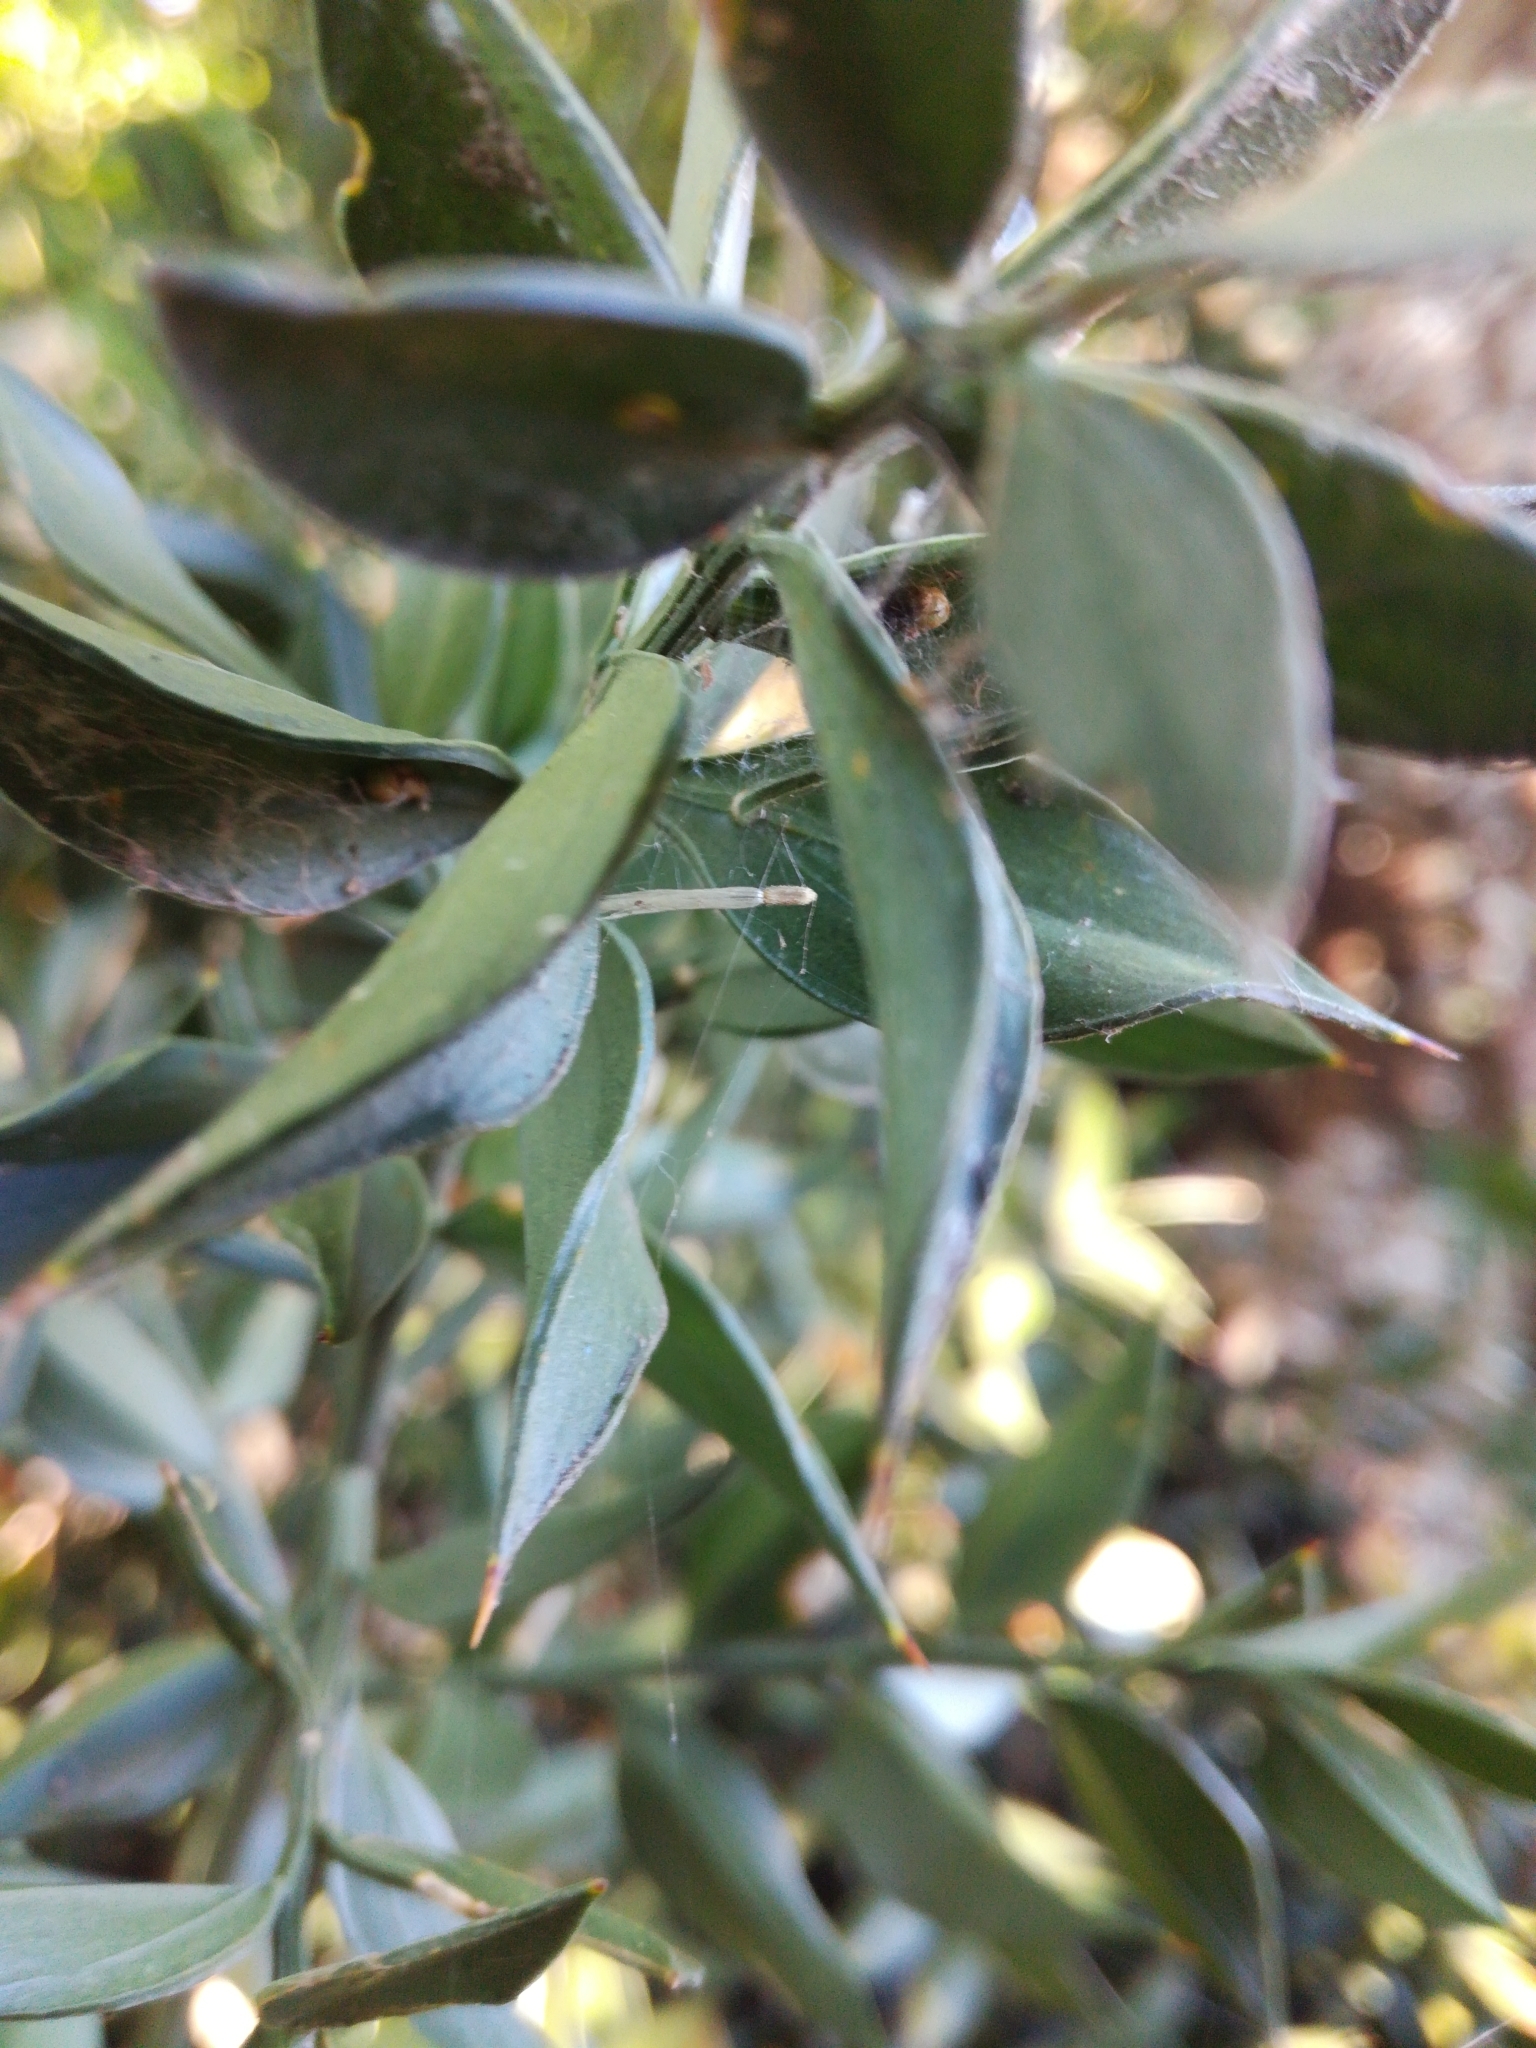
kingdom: Plantae
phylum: Tracheophyta
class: Liliopsida
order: Asparagales
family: Asparagaceae
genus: Ruscus
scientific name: Ruscus aculeatus
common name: Butcher's-broom
